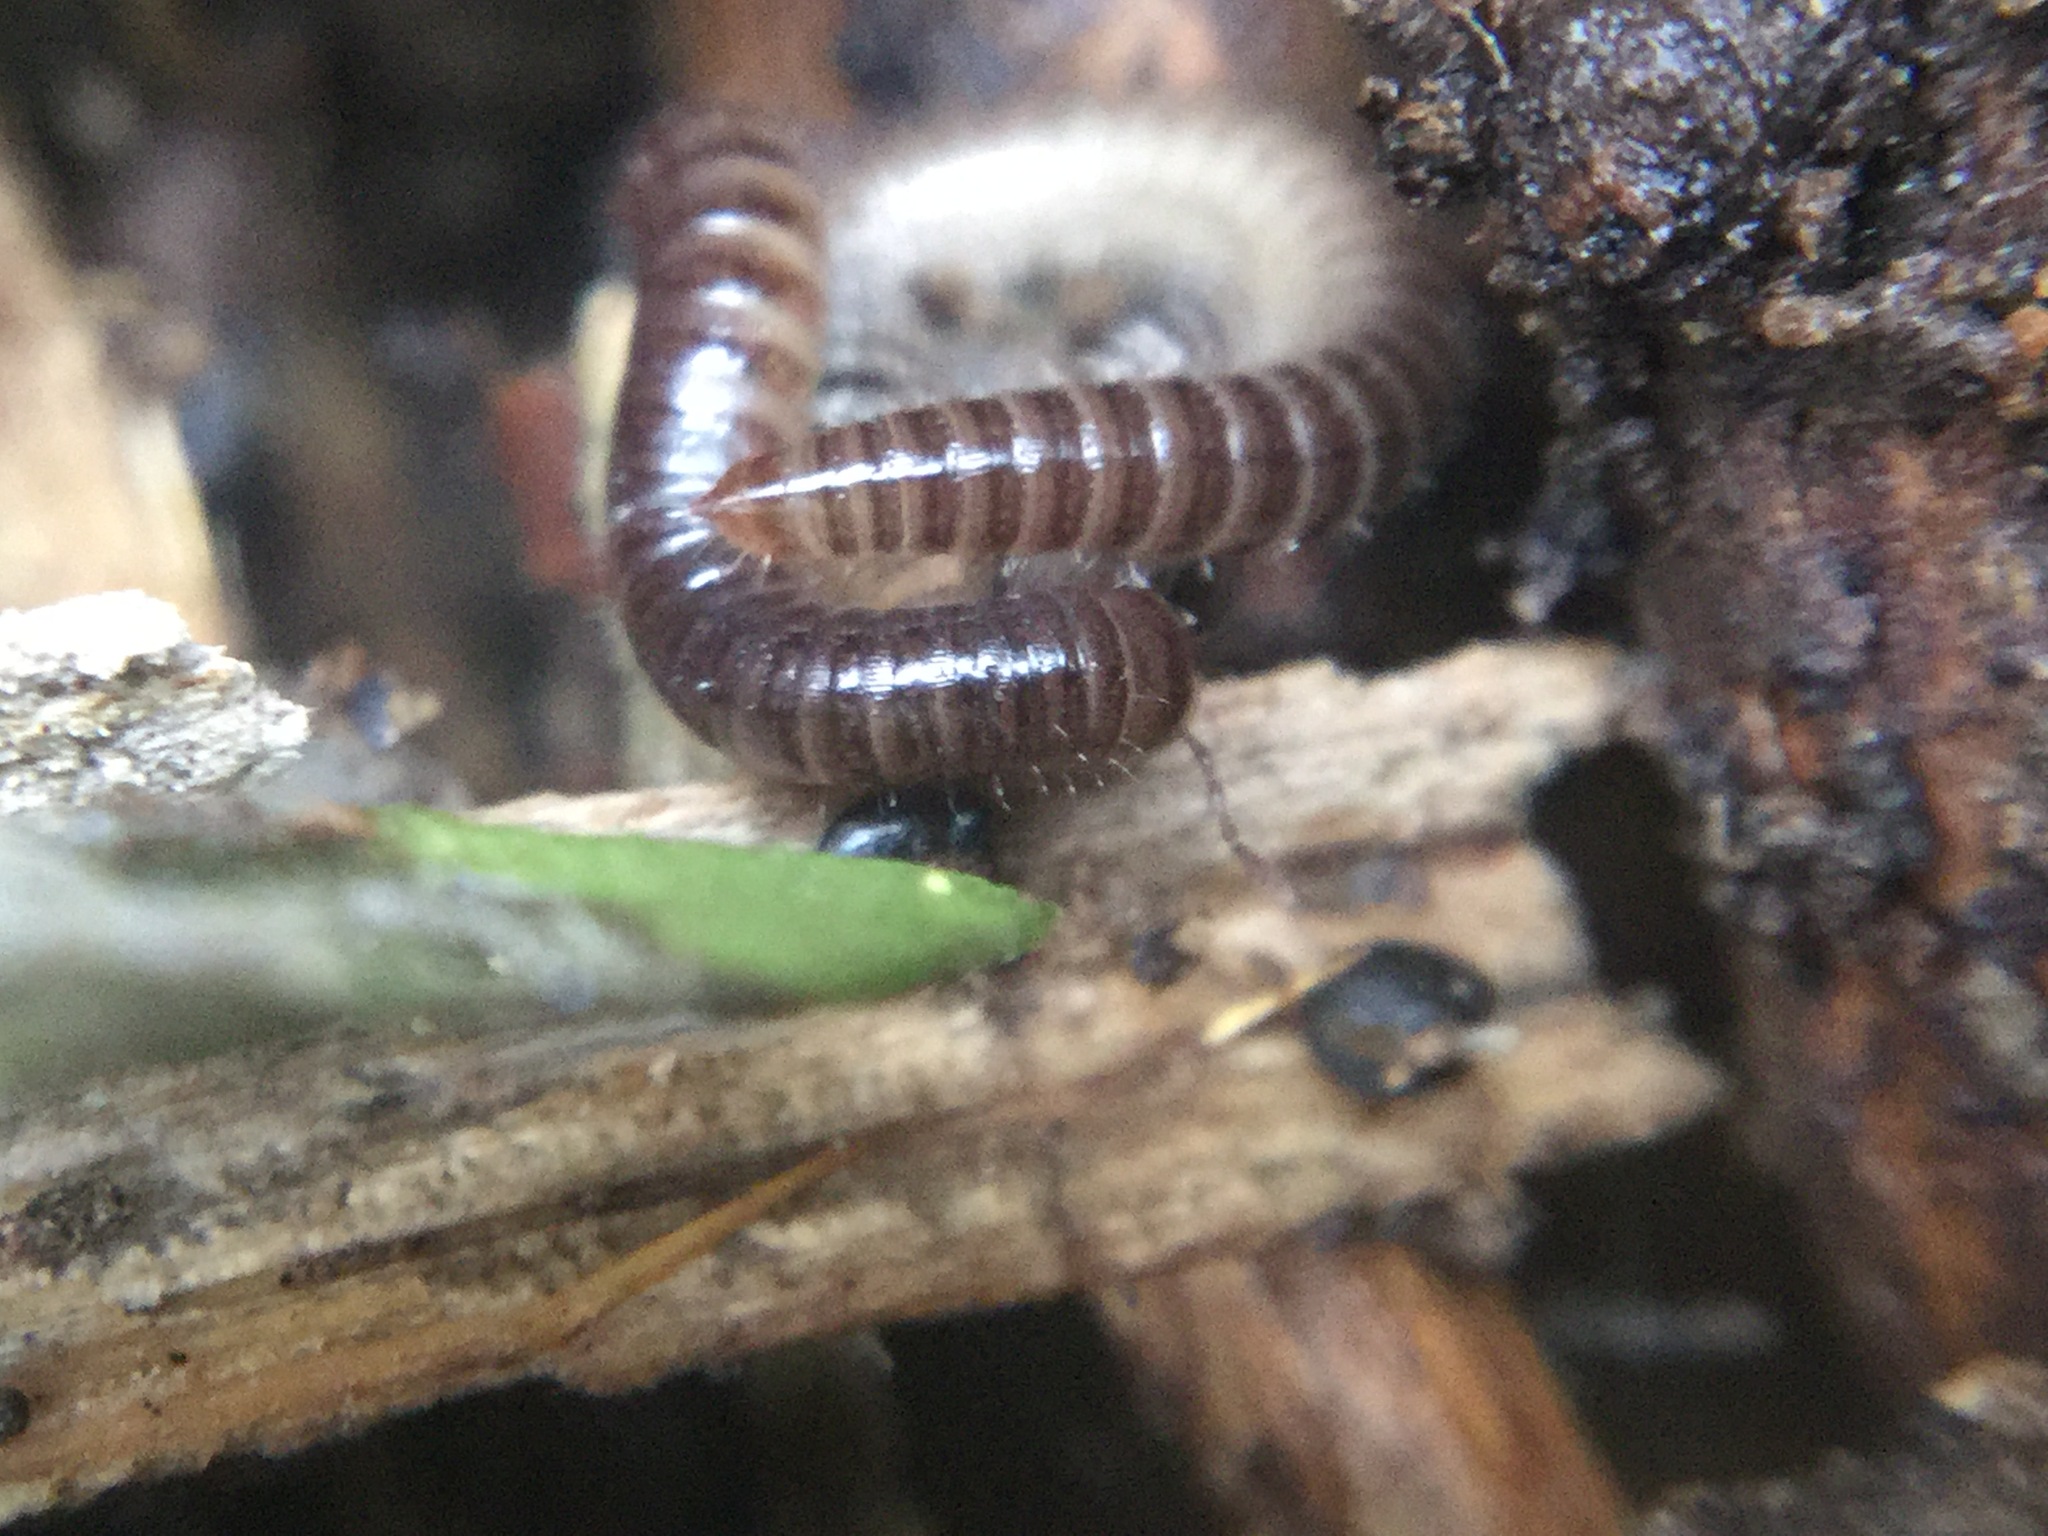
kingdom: Animalia
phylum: Arthropoda
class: Diplopoda
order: Julida
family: Julidae
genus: Ophyiulus
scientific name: Ophyiulus pilosus
